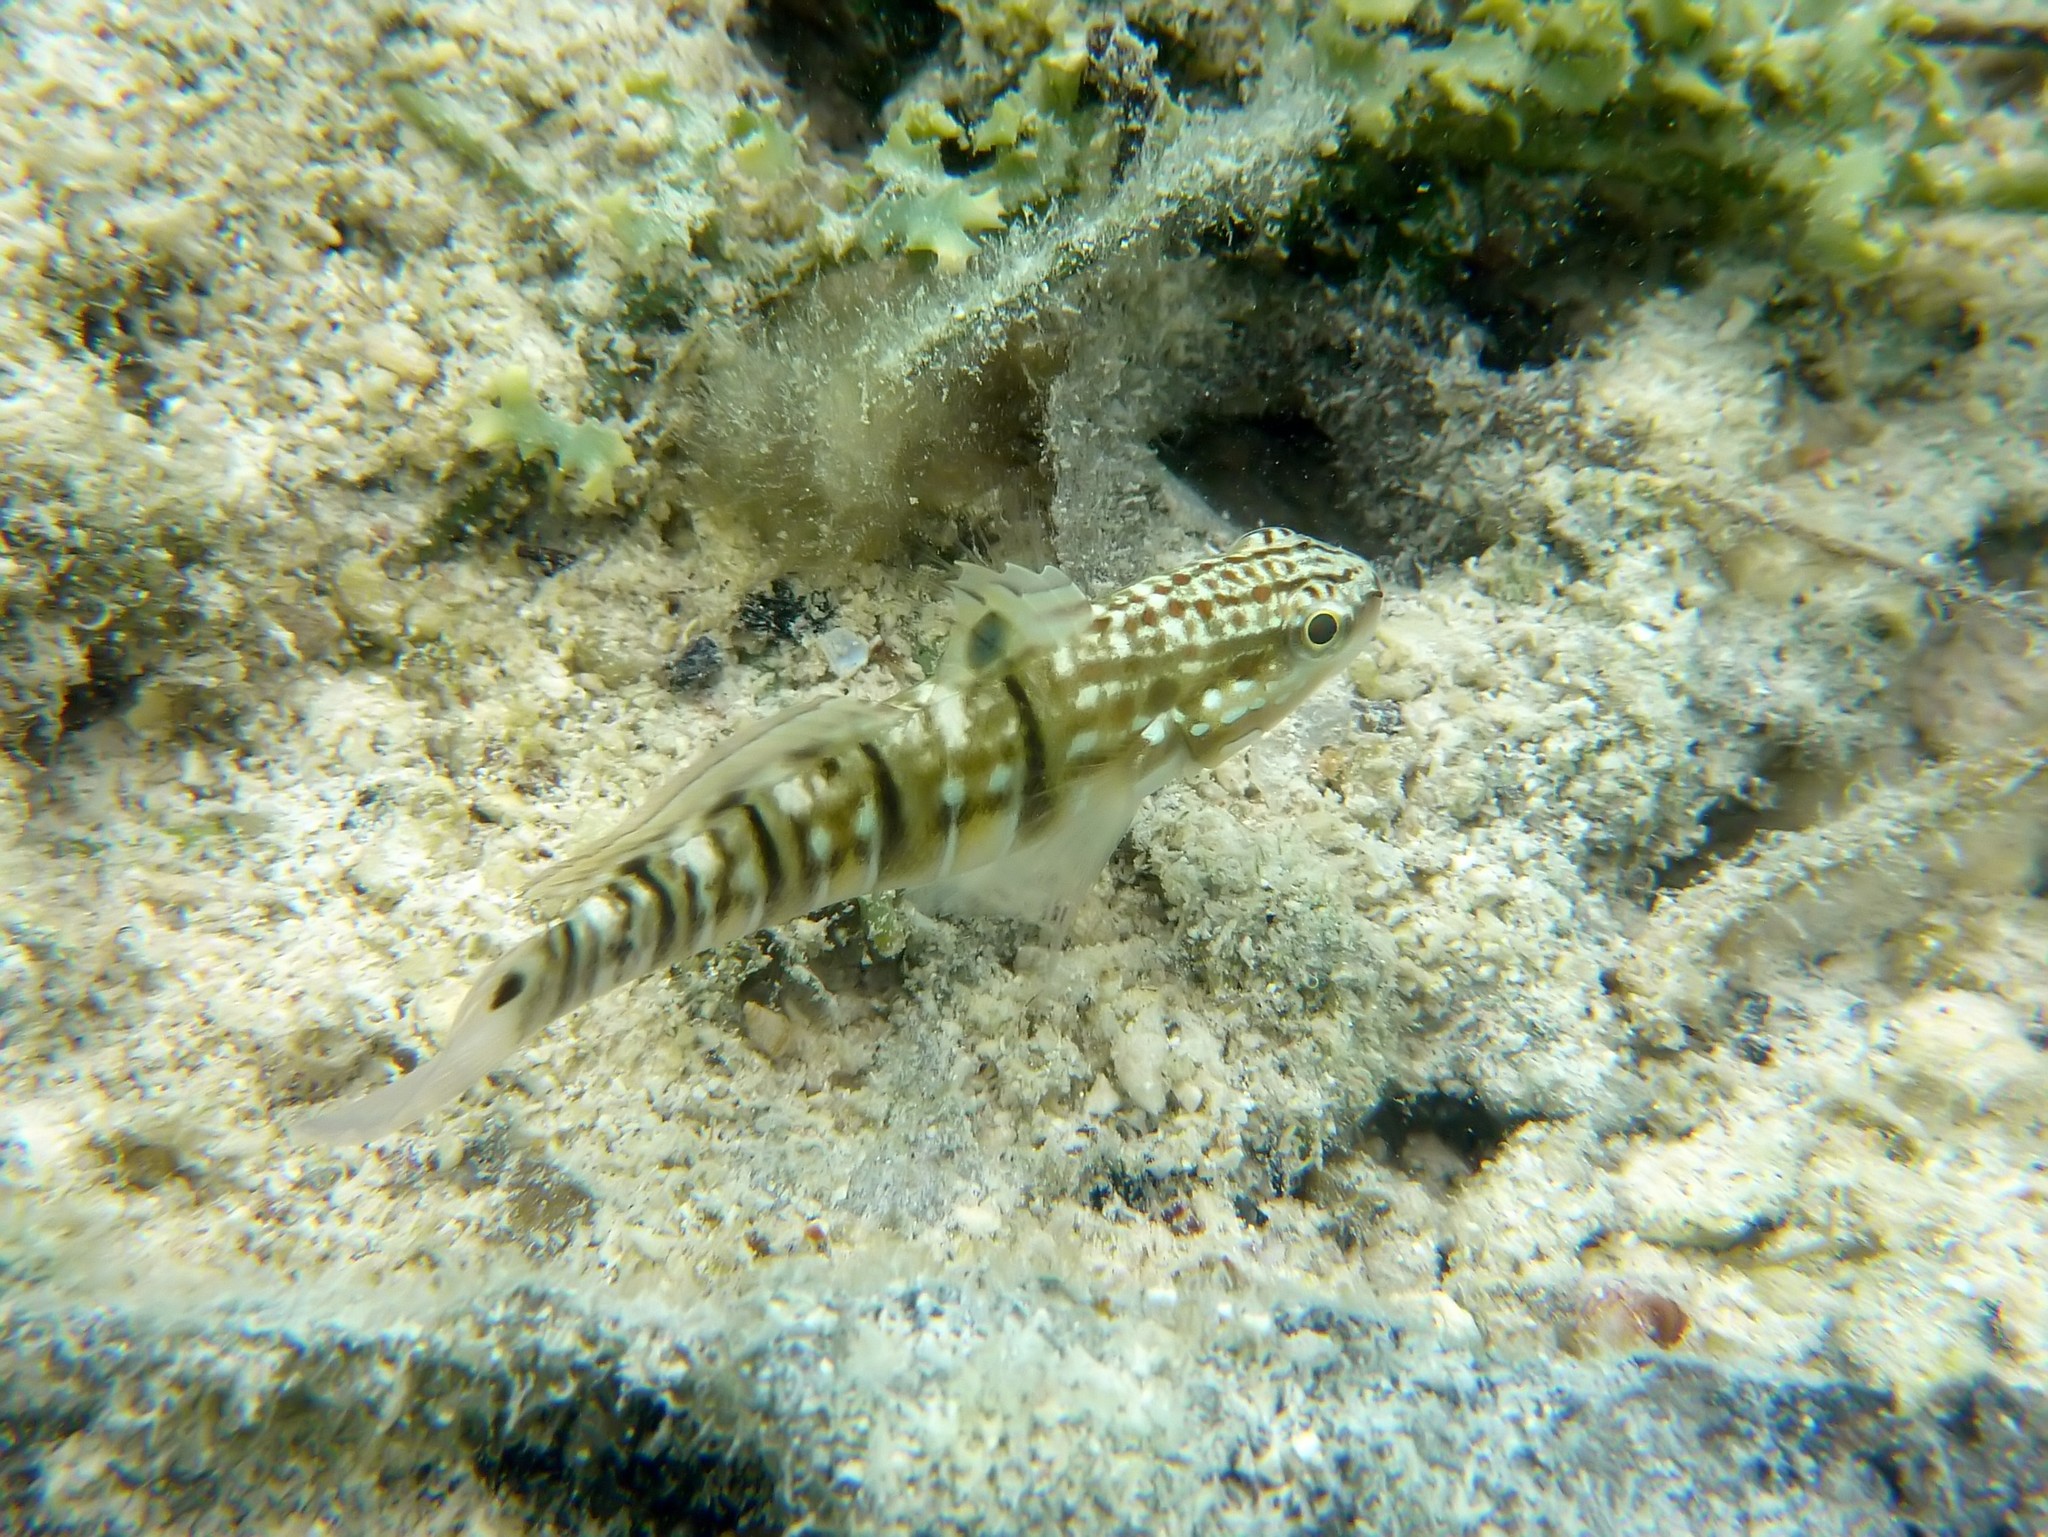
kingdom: Animalia
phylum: Chordata
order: Perciformes
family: Gobiidae
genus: Amblygobius
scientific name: Amblygobius phalaena
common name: Banded goby
